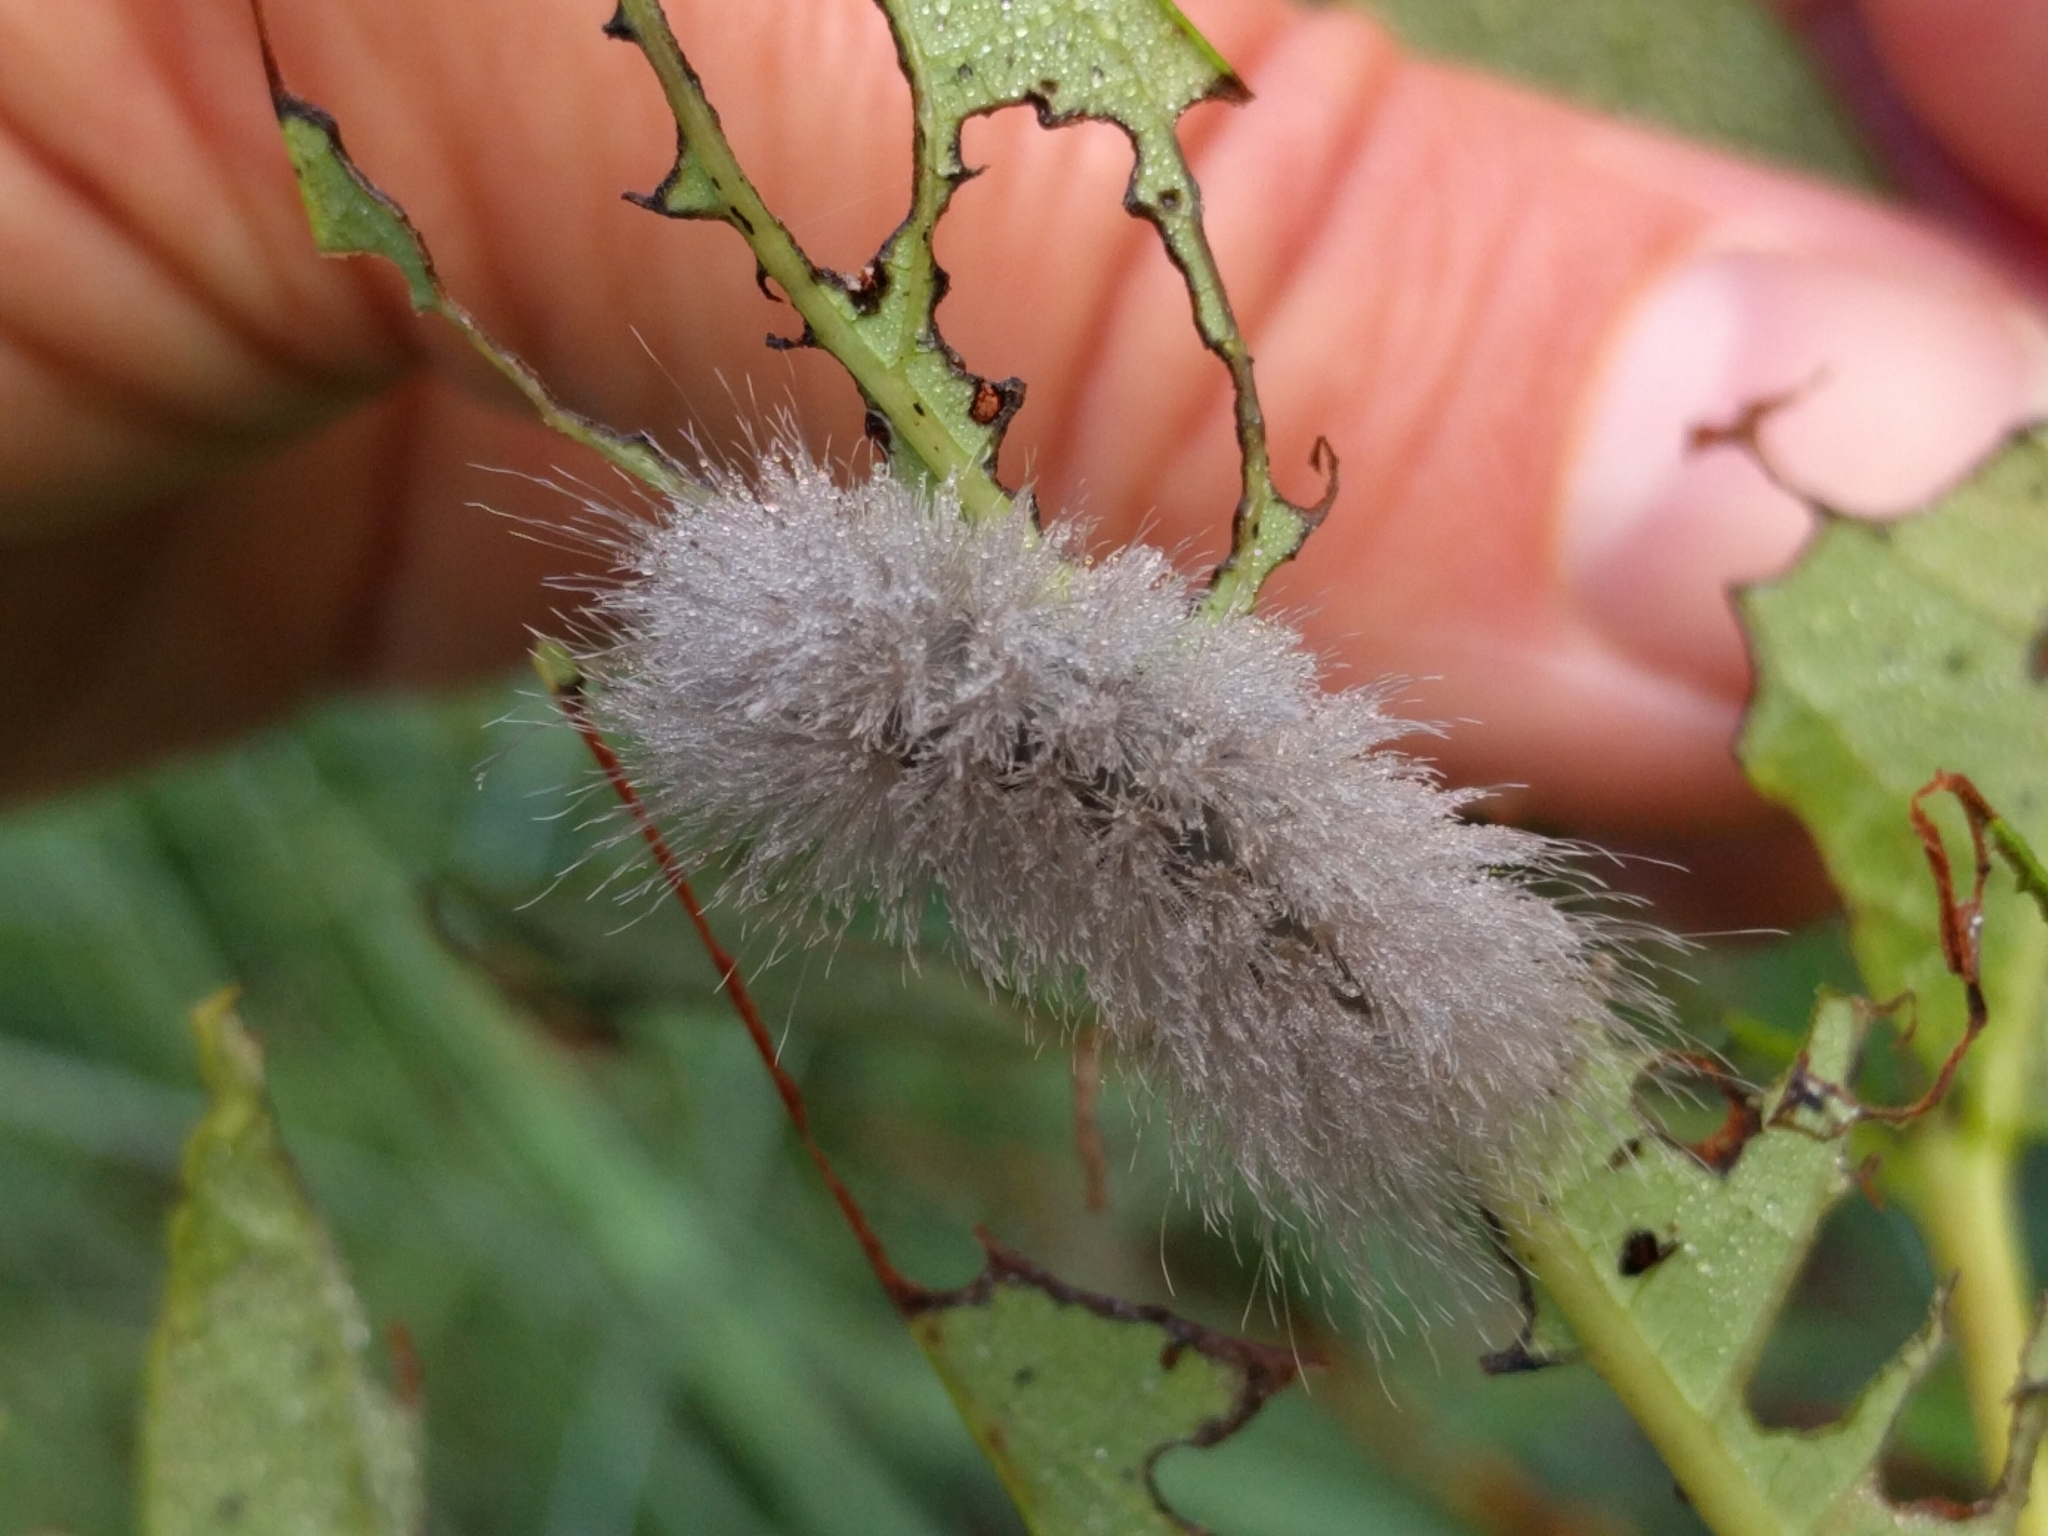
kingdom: Animalia
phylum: Arthropoda
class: Insecta
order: Lepidoptera
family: Erebidae
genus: Cycnia
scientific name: Cycnia tenera
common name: Delicate cycnia moth
